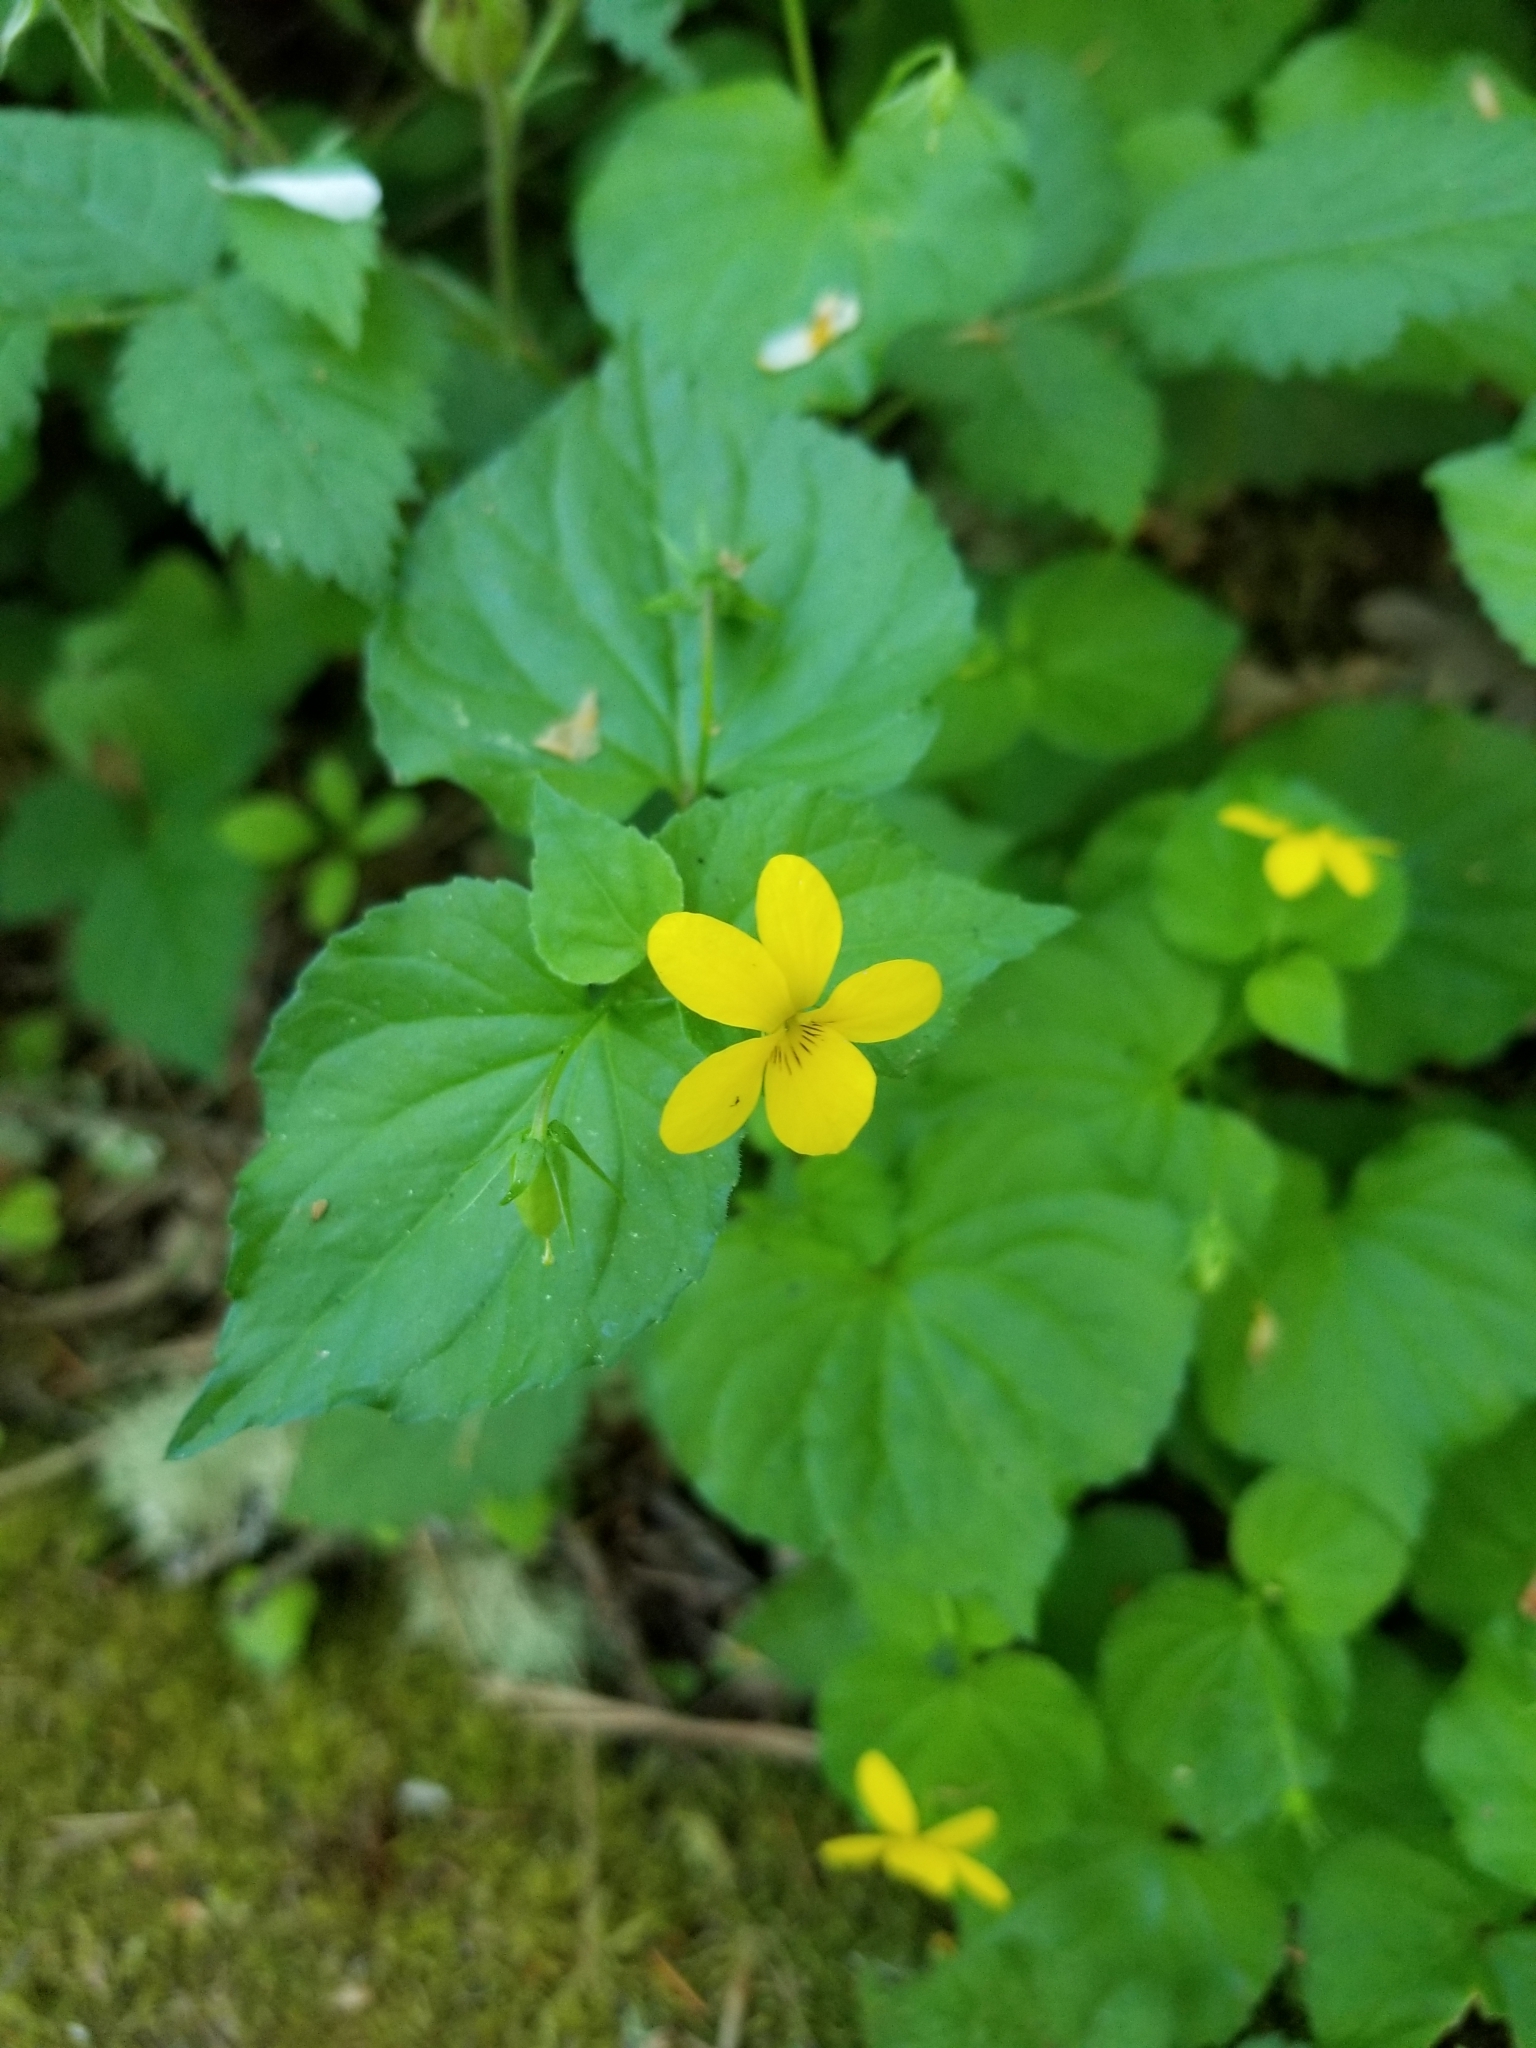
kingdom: Plantae
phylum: Tracheophyta
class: Magnoliopsida
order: Malpighiales
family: Violaceae
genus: Viola
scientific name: Viola glabella
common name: Stream violet
